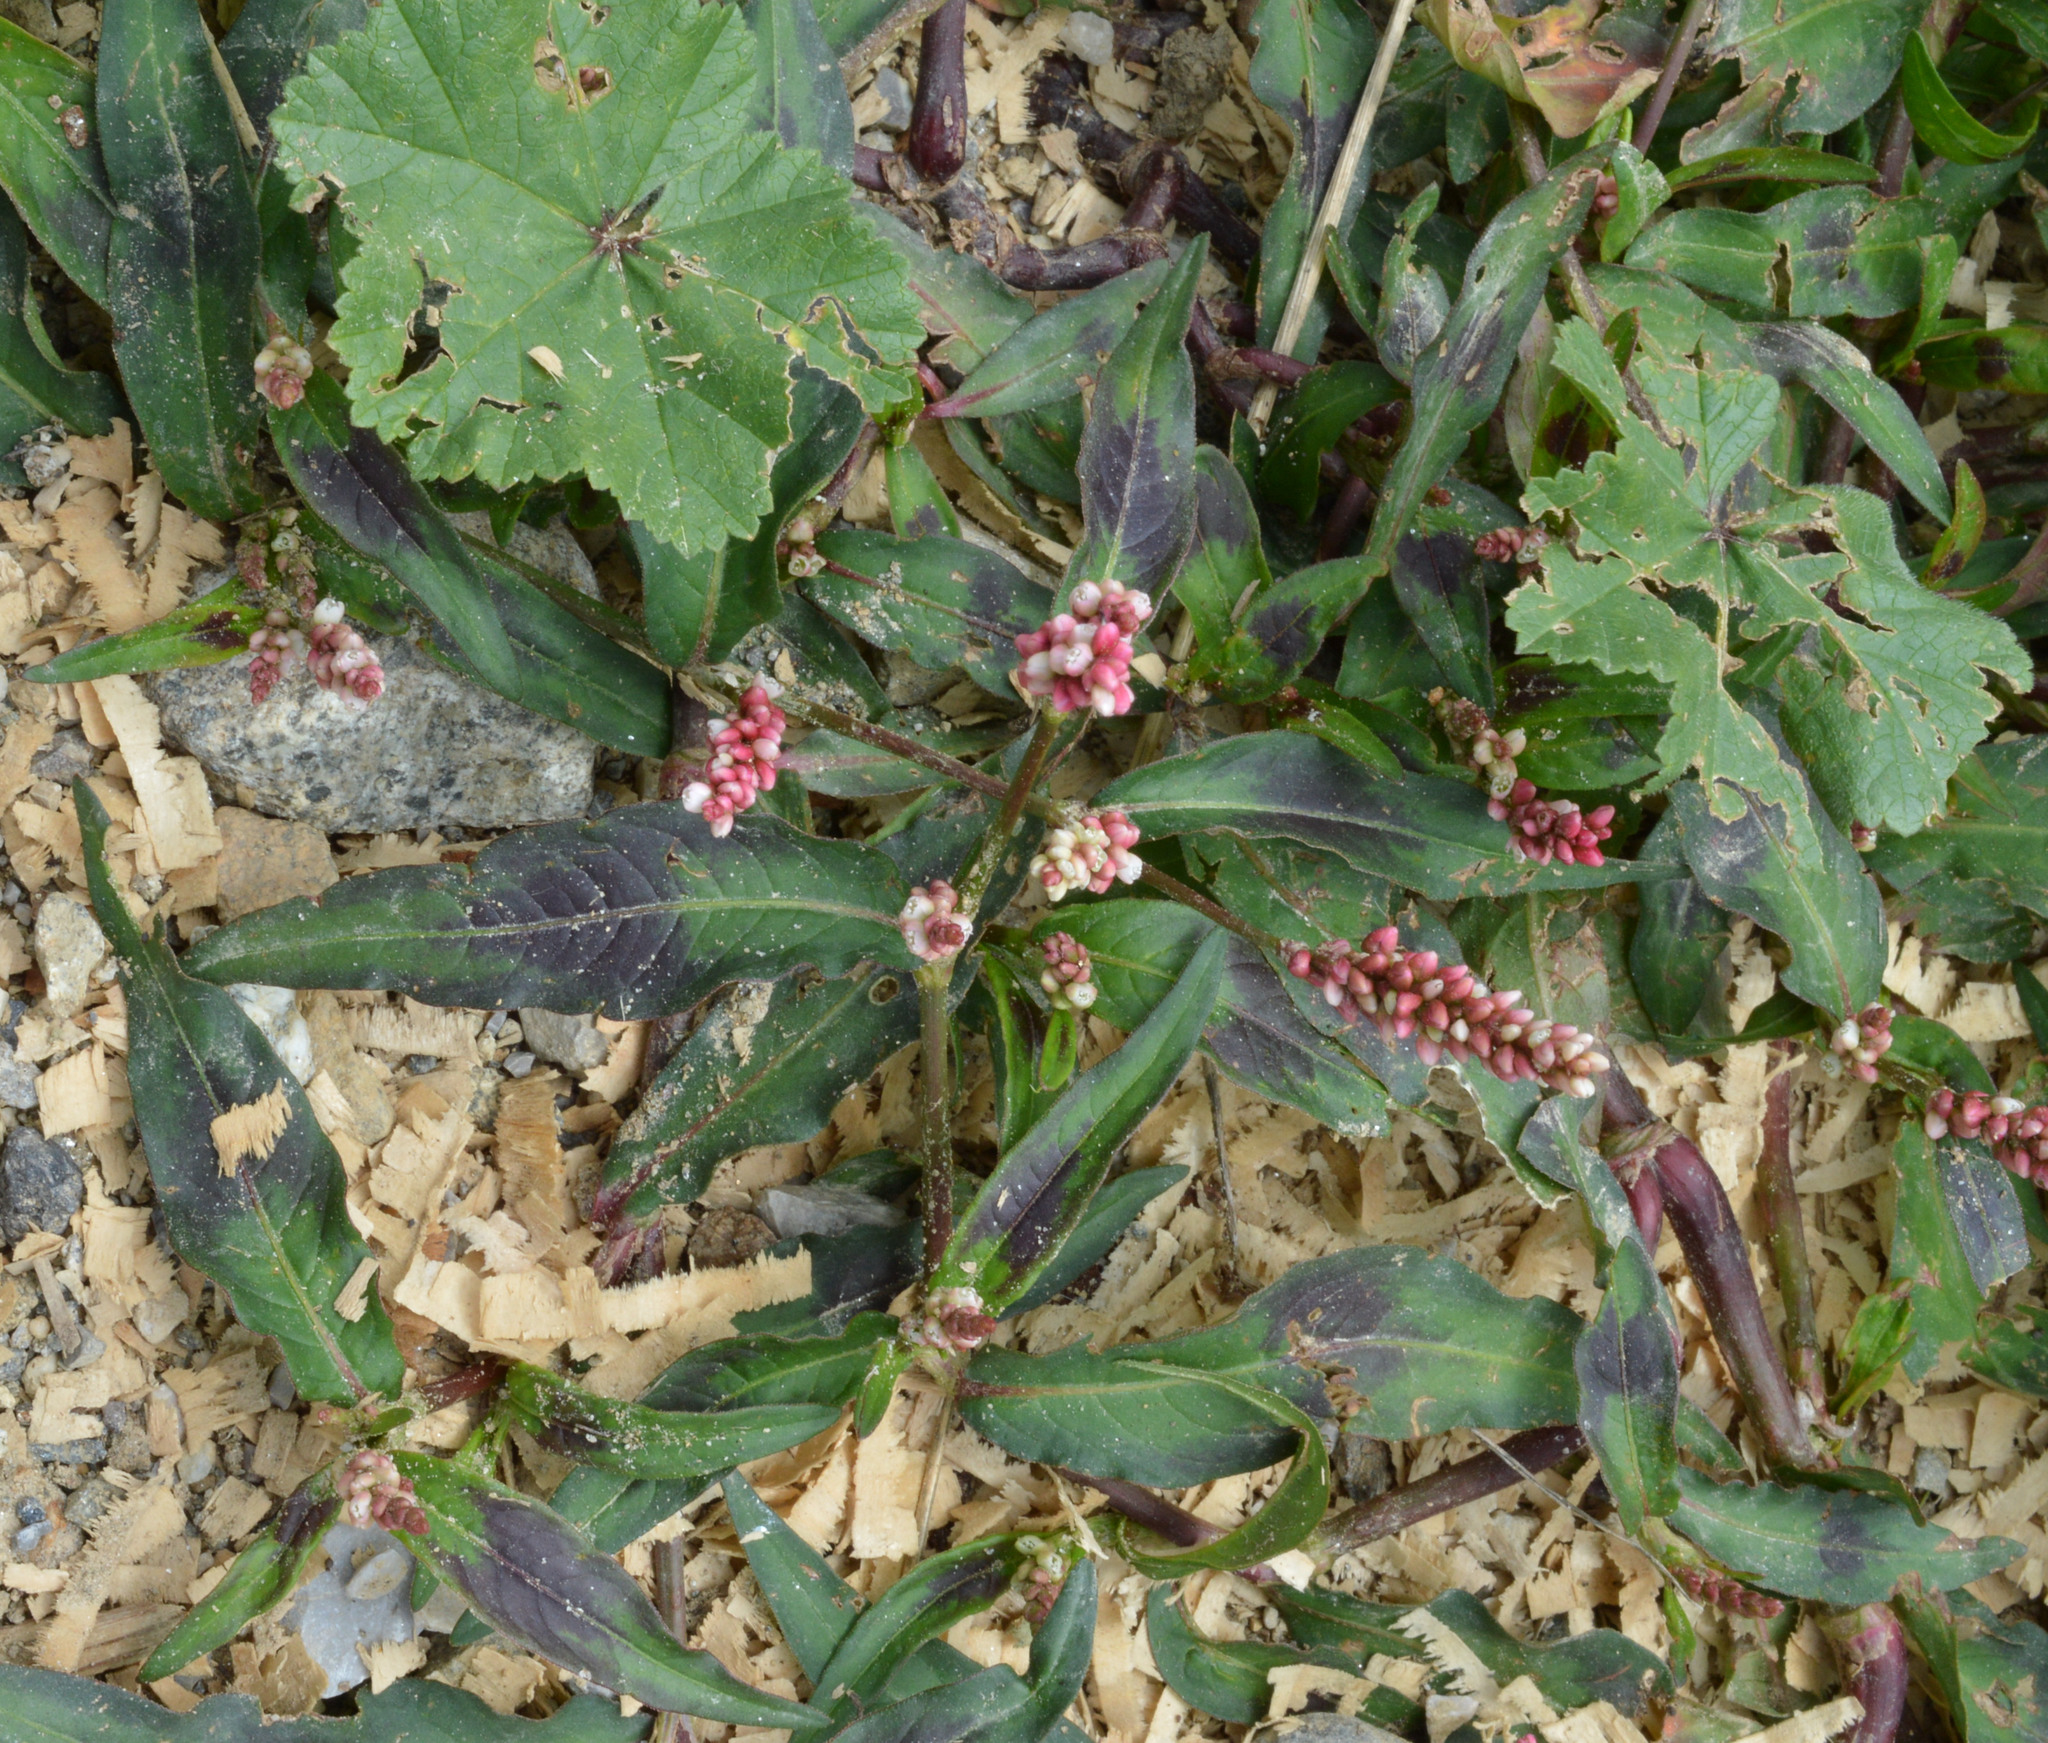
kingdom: Plantae
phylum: Tracheophyta
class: Magnoliopsida
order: Caryophyllales
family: Polygonaceae
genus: Persicaria
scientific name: Persicaria maculosa
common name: Redshank
